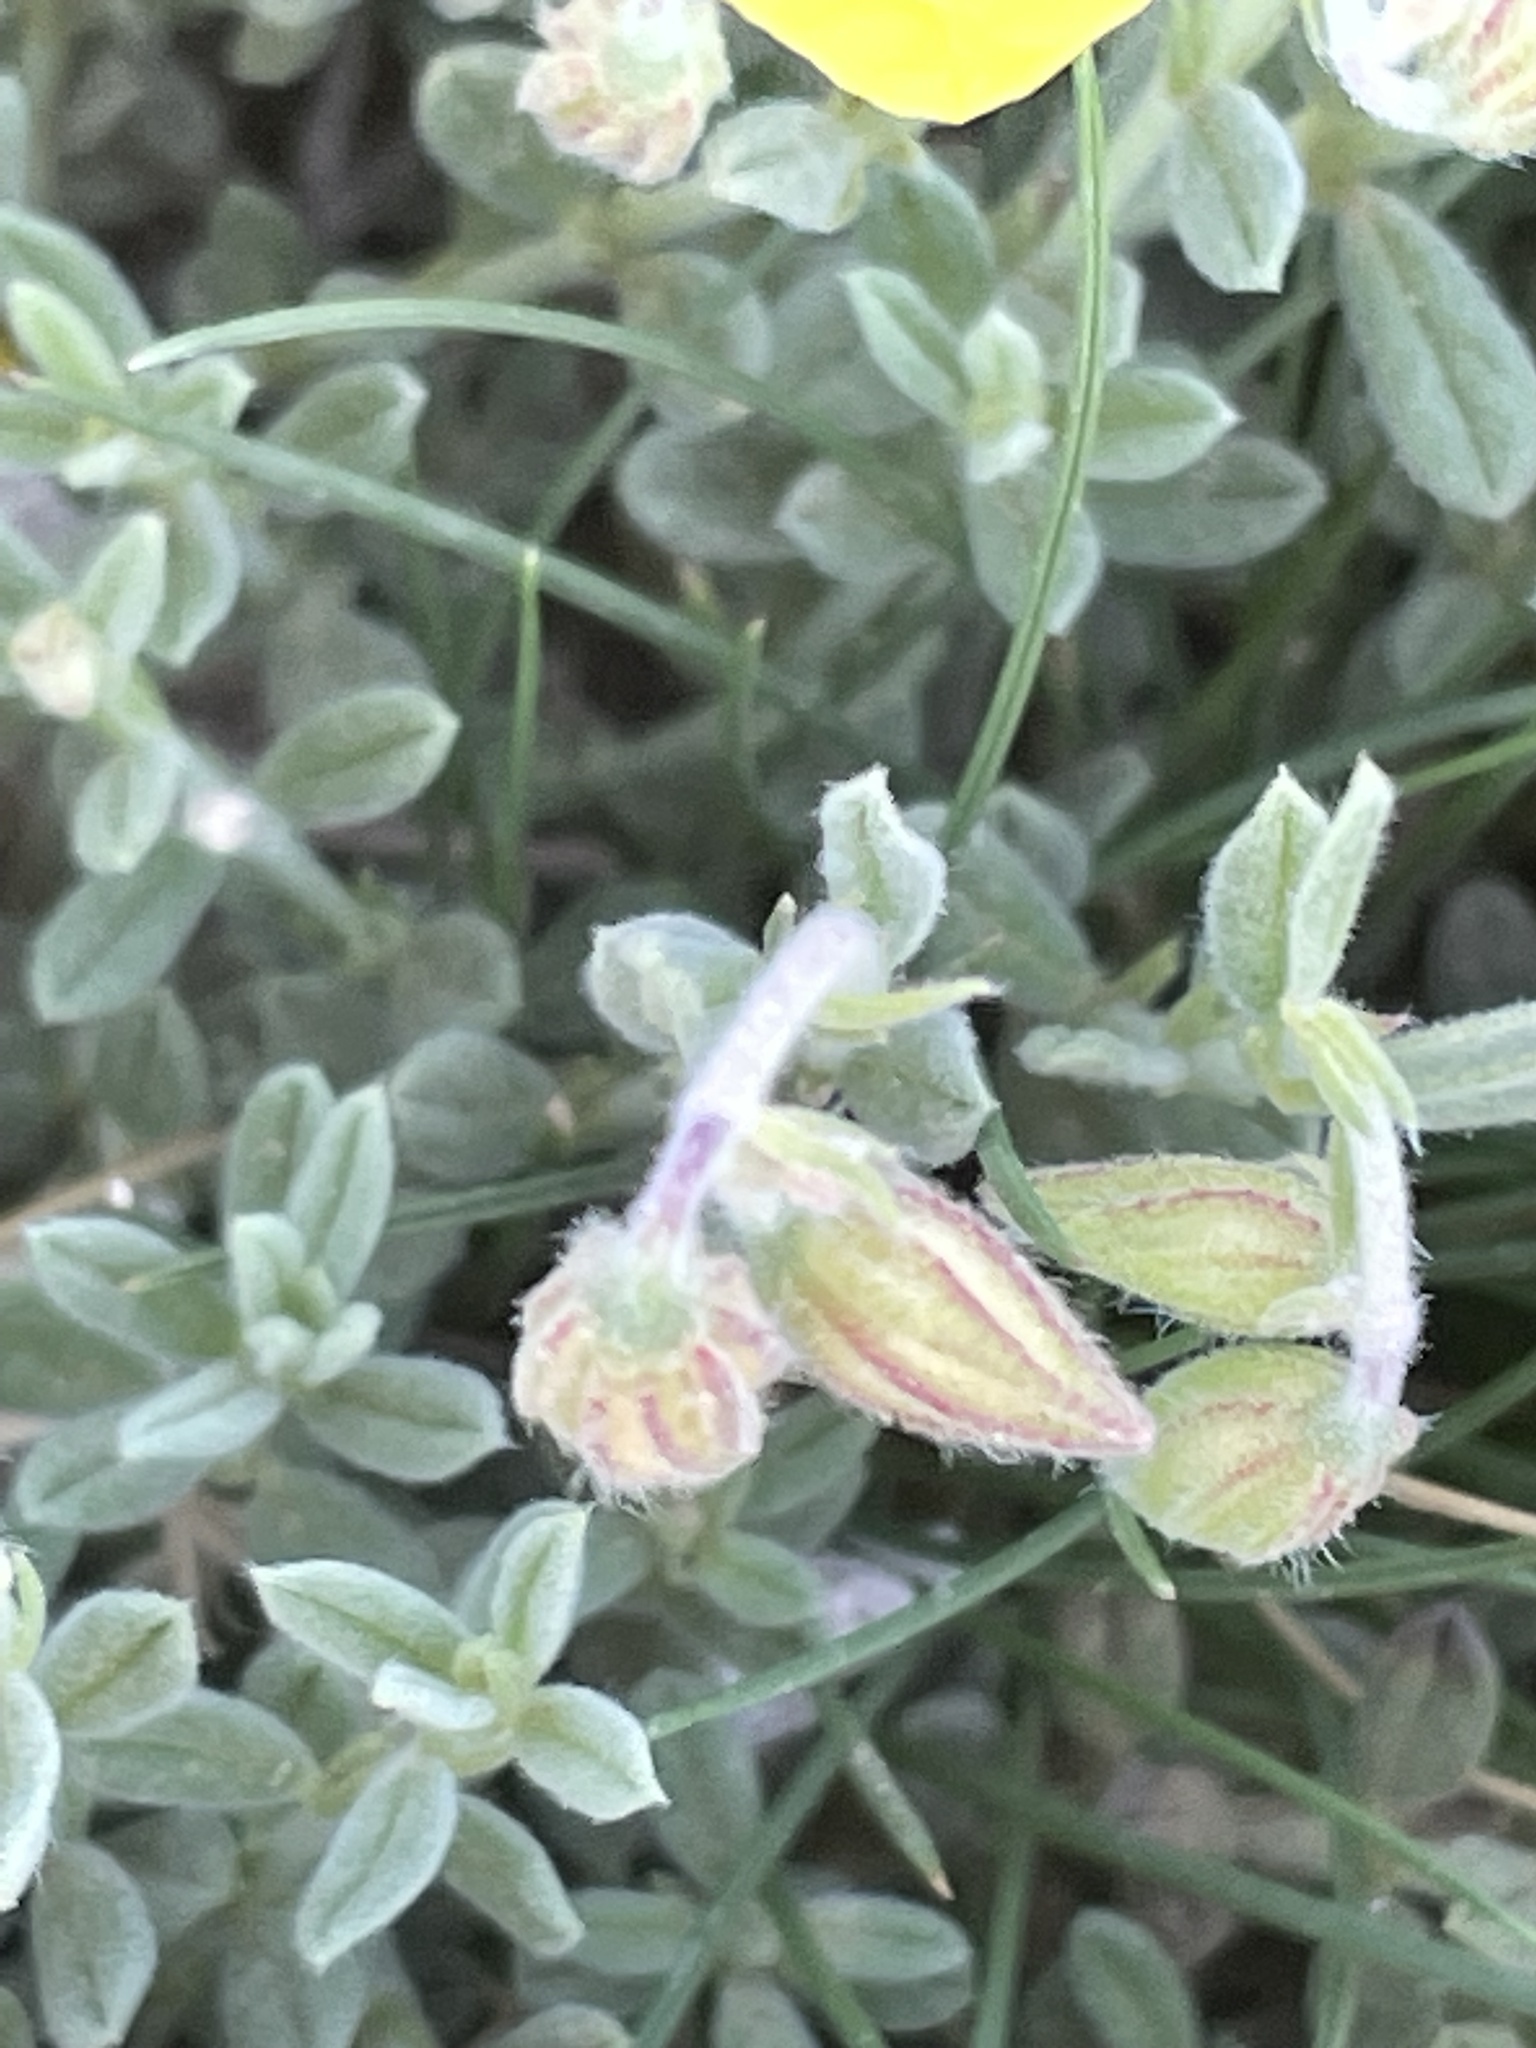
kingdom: Plantae
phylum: Tracheophyta
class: Magnoliopsida
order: Malvales
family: Cistaceae
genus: Helianthemum
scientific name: Helianthemum croceum
